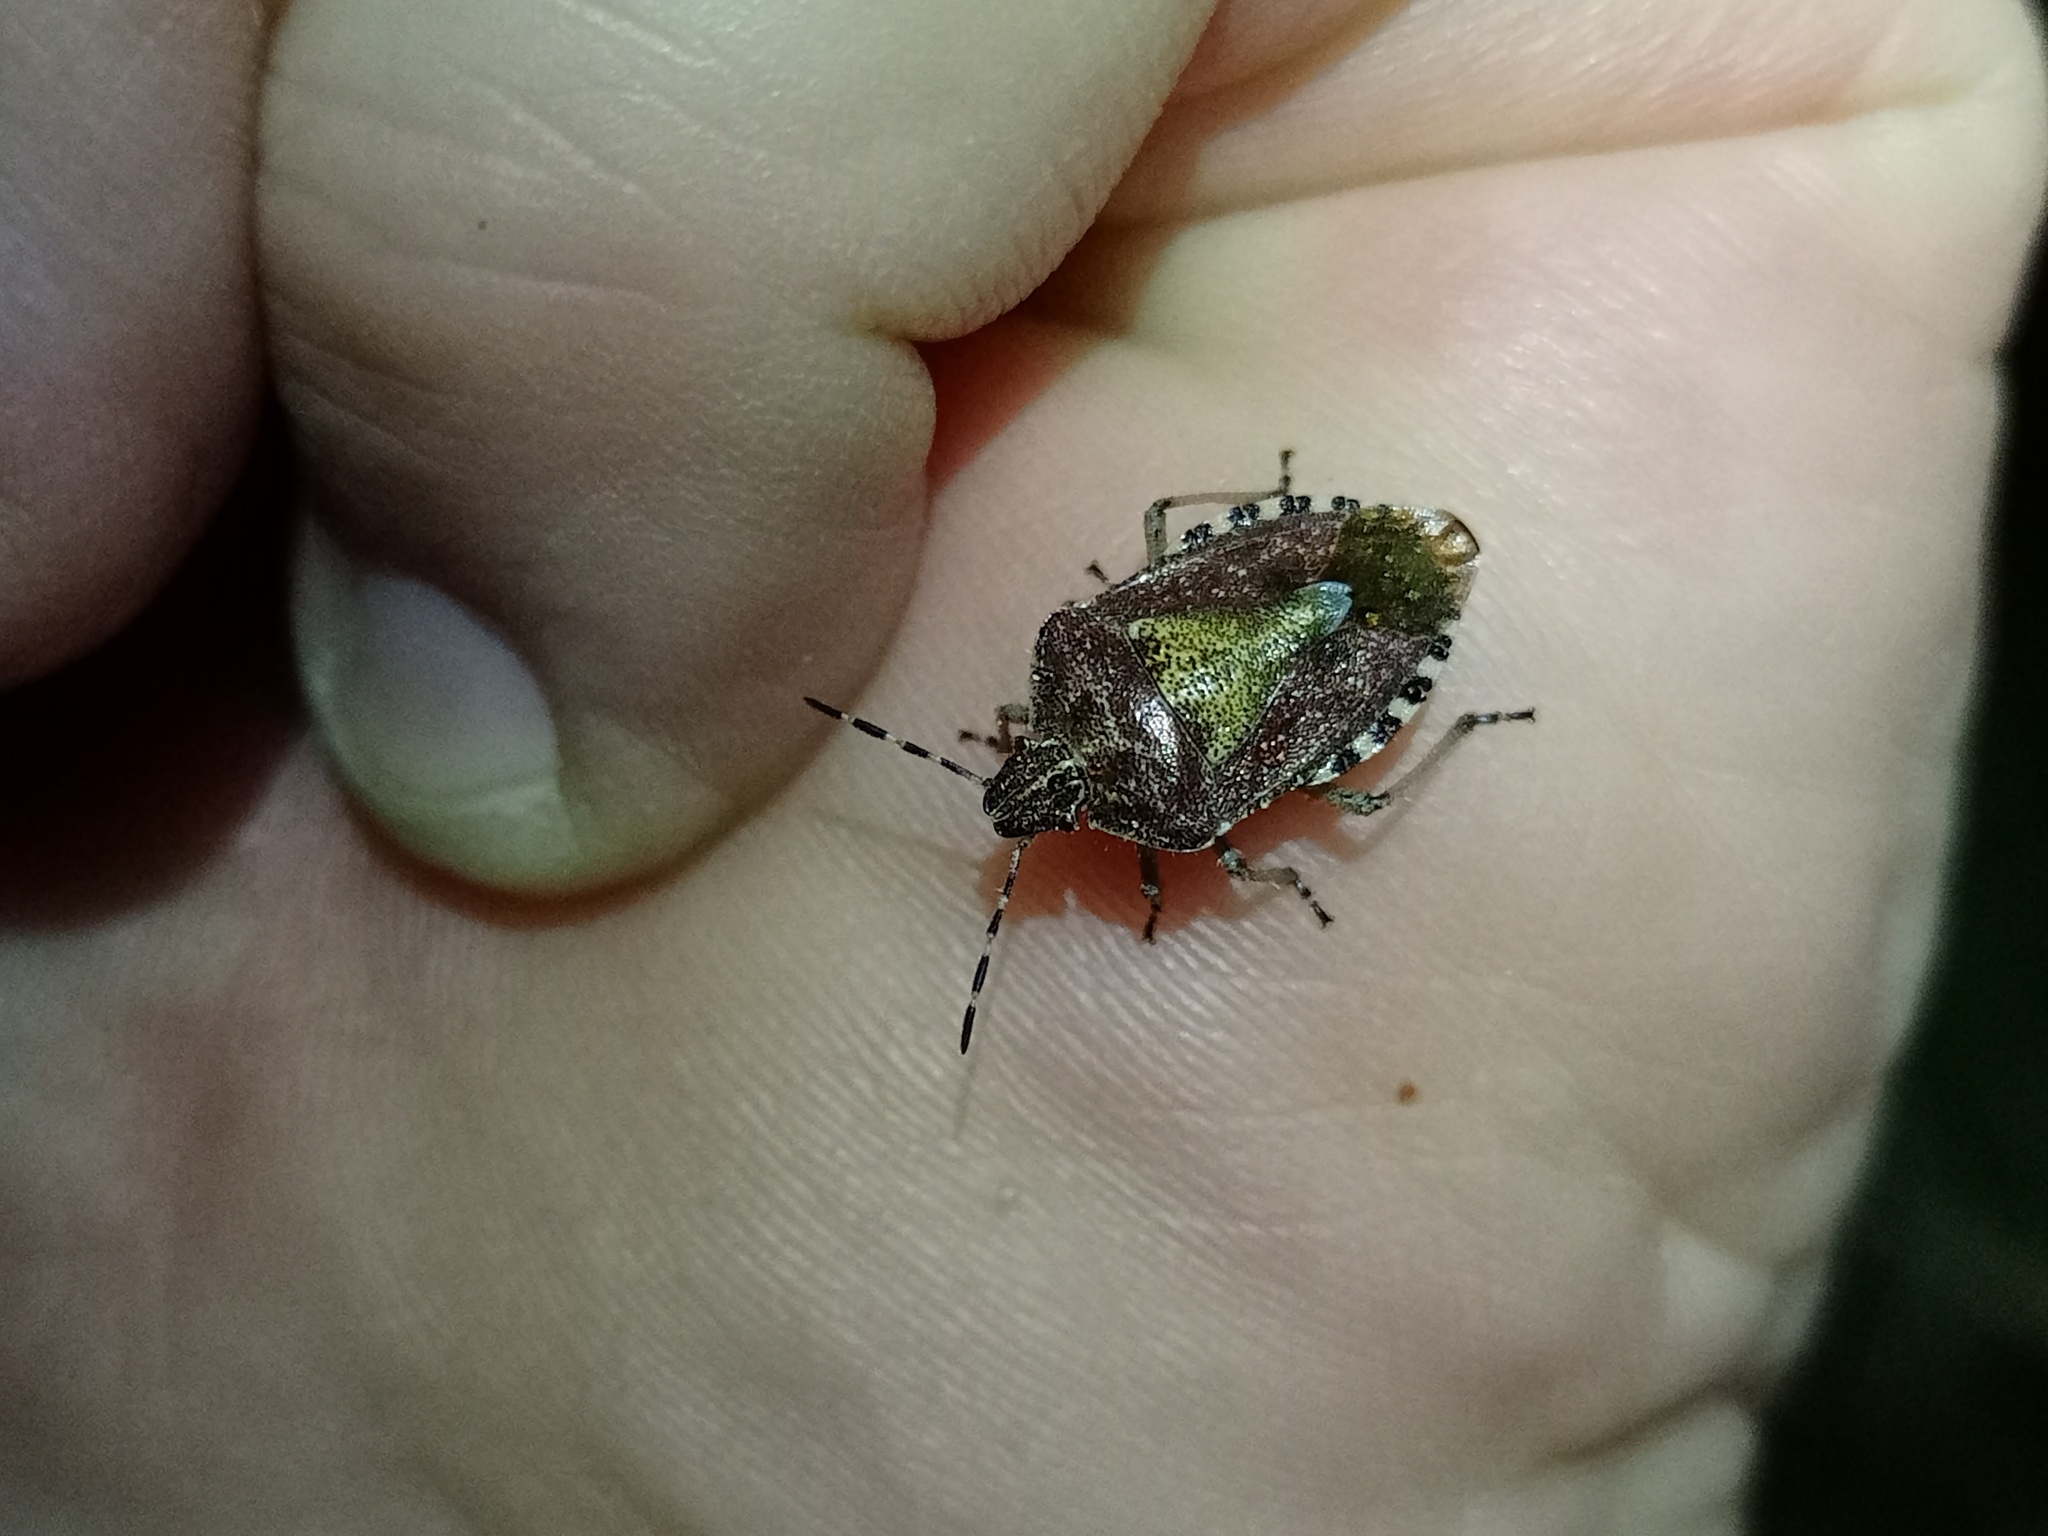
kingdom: Animalia
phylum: Arthropoda
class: Insecta
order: Hemiptera
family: Pentatomidae
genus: Dolycoris
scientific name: Dolycoris baccarum
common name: Sloe bug
